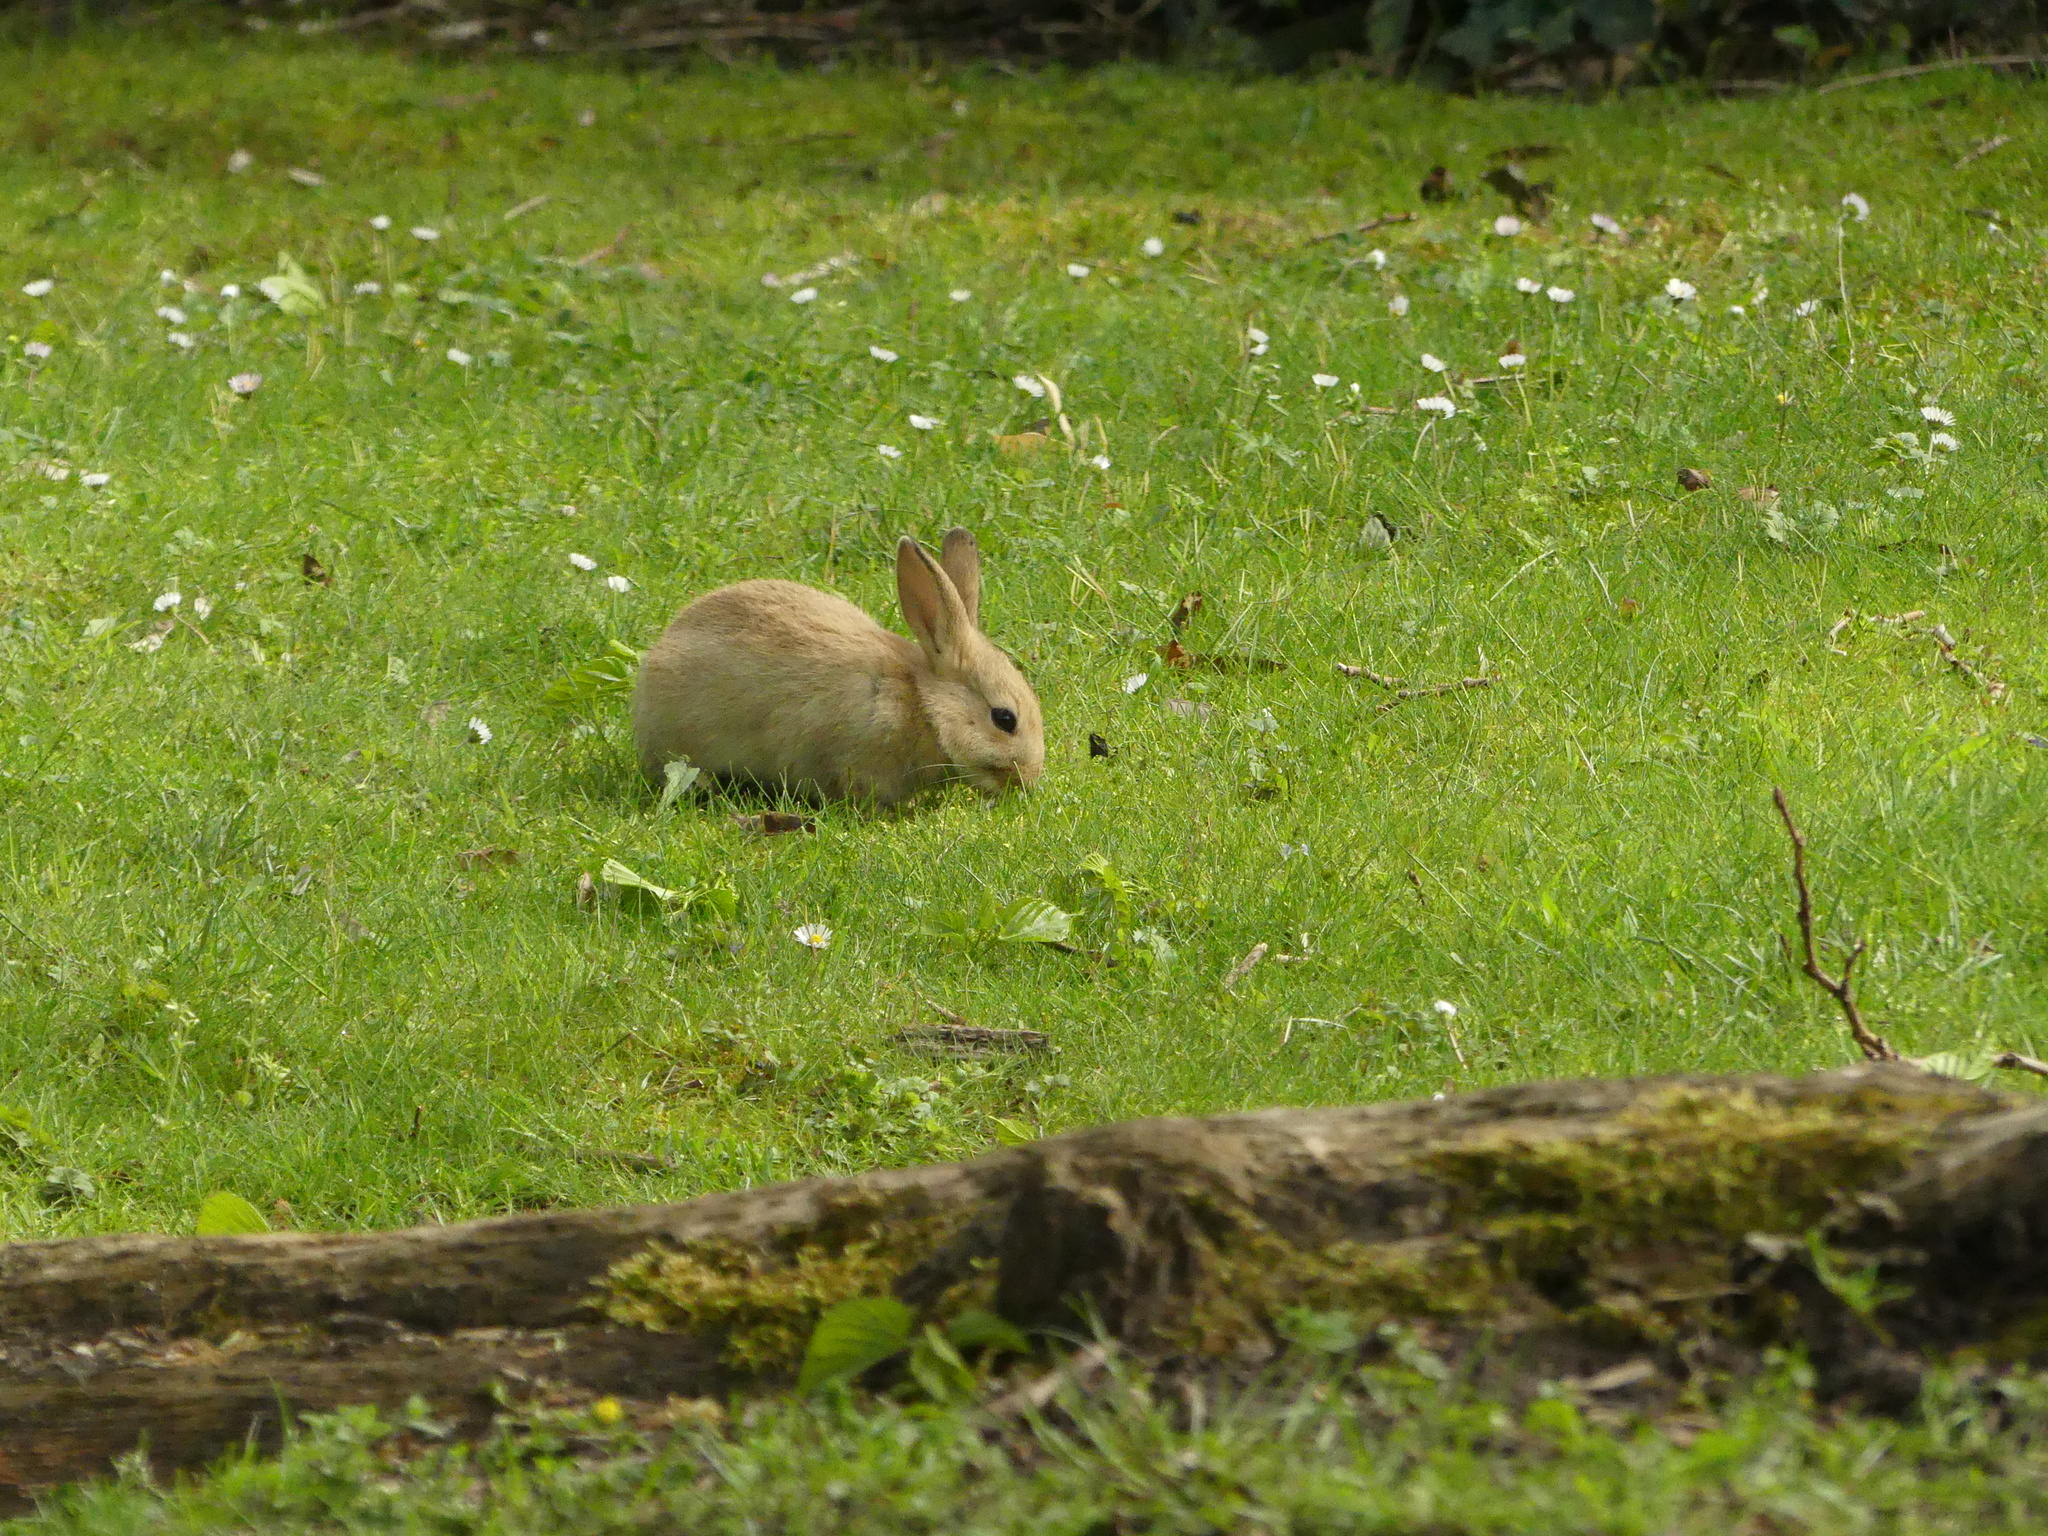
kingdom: Animalia
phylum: Chordata
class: Mammalia
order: Lagomorpha
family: Leporidae
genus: Oryctolagus
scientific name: Oryctolagus cuniculus
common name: European rabbit
